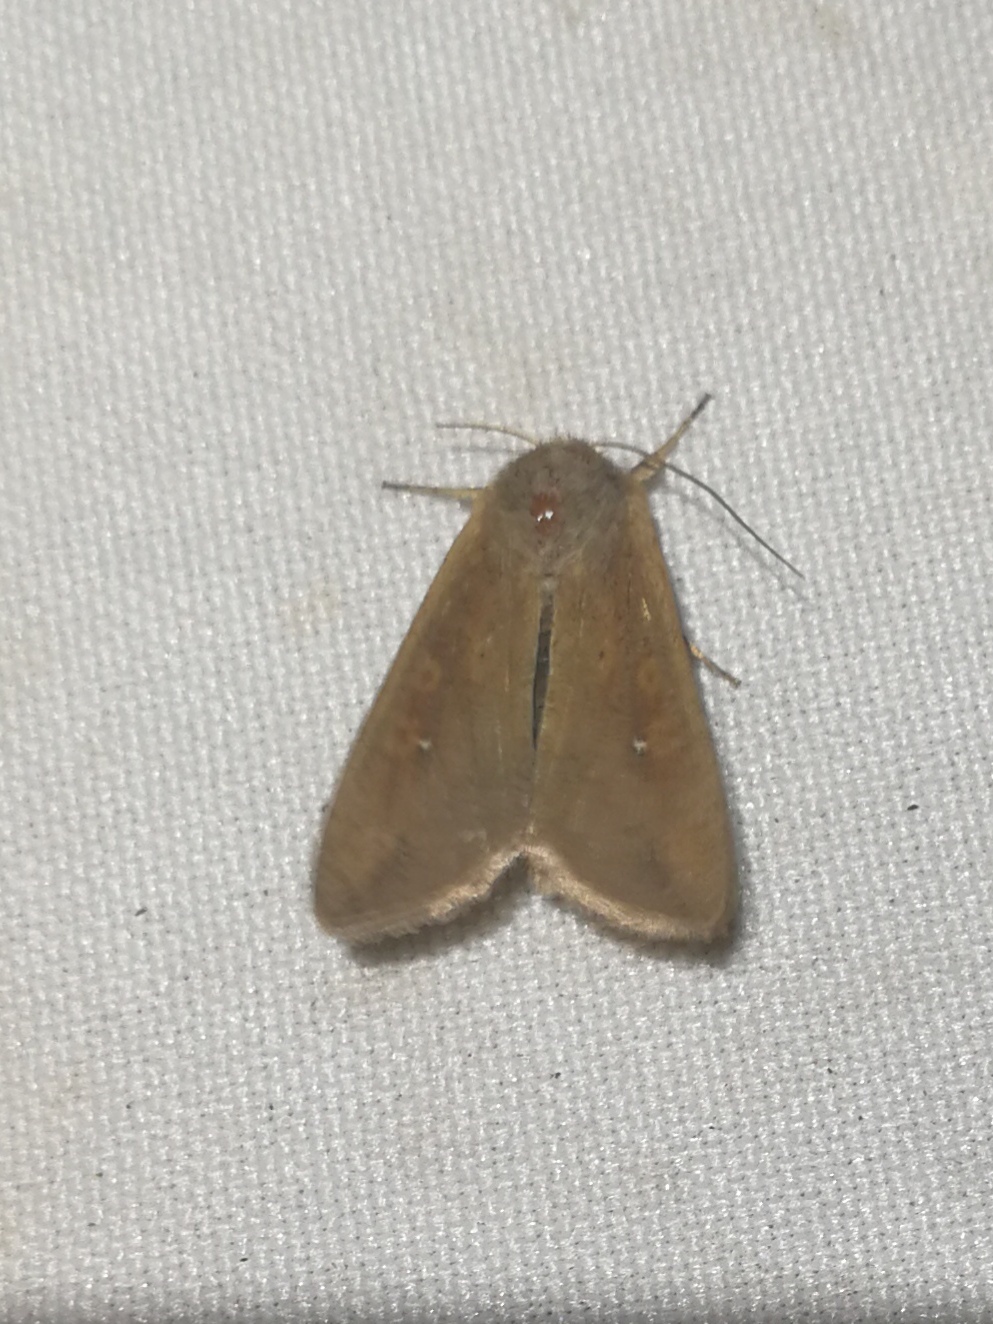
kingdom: Animalia
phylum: Arthropoda
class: Insecta
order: Lepidoptera
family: Noctuidae
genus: Mythimna
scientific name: Mythimna unipuncta
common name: White-speck
